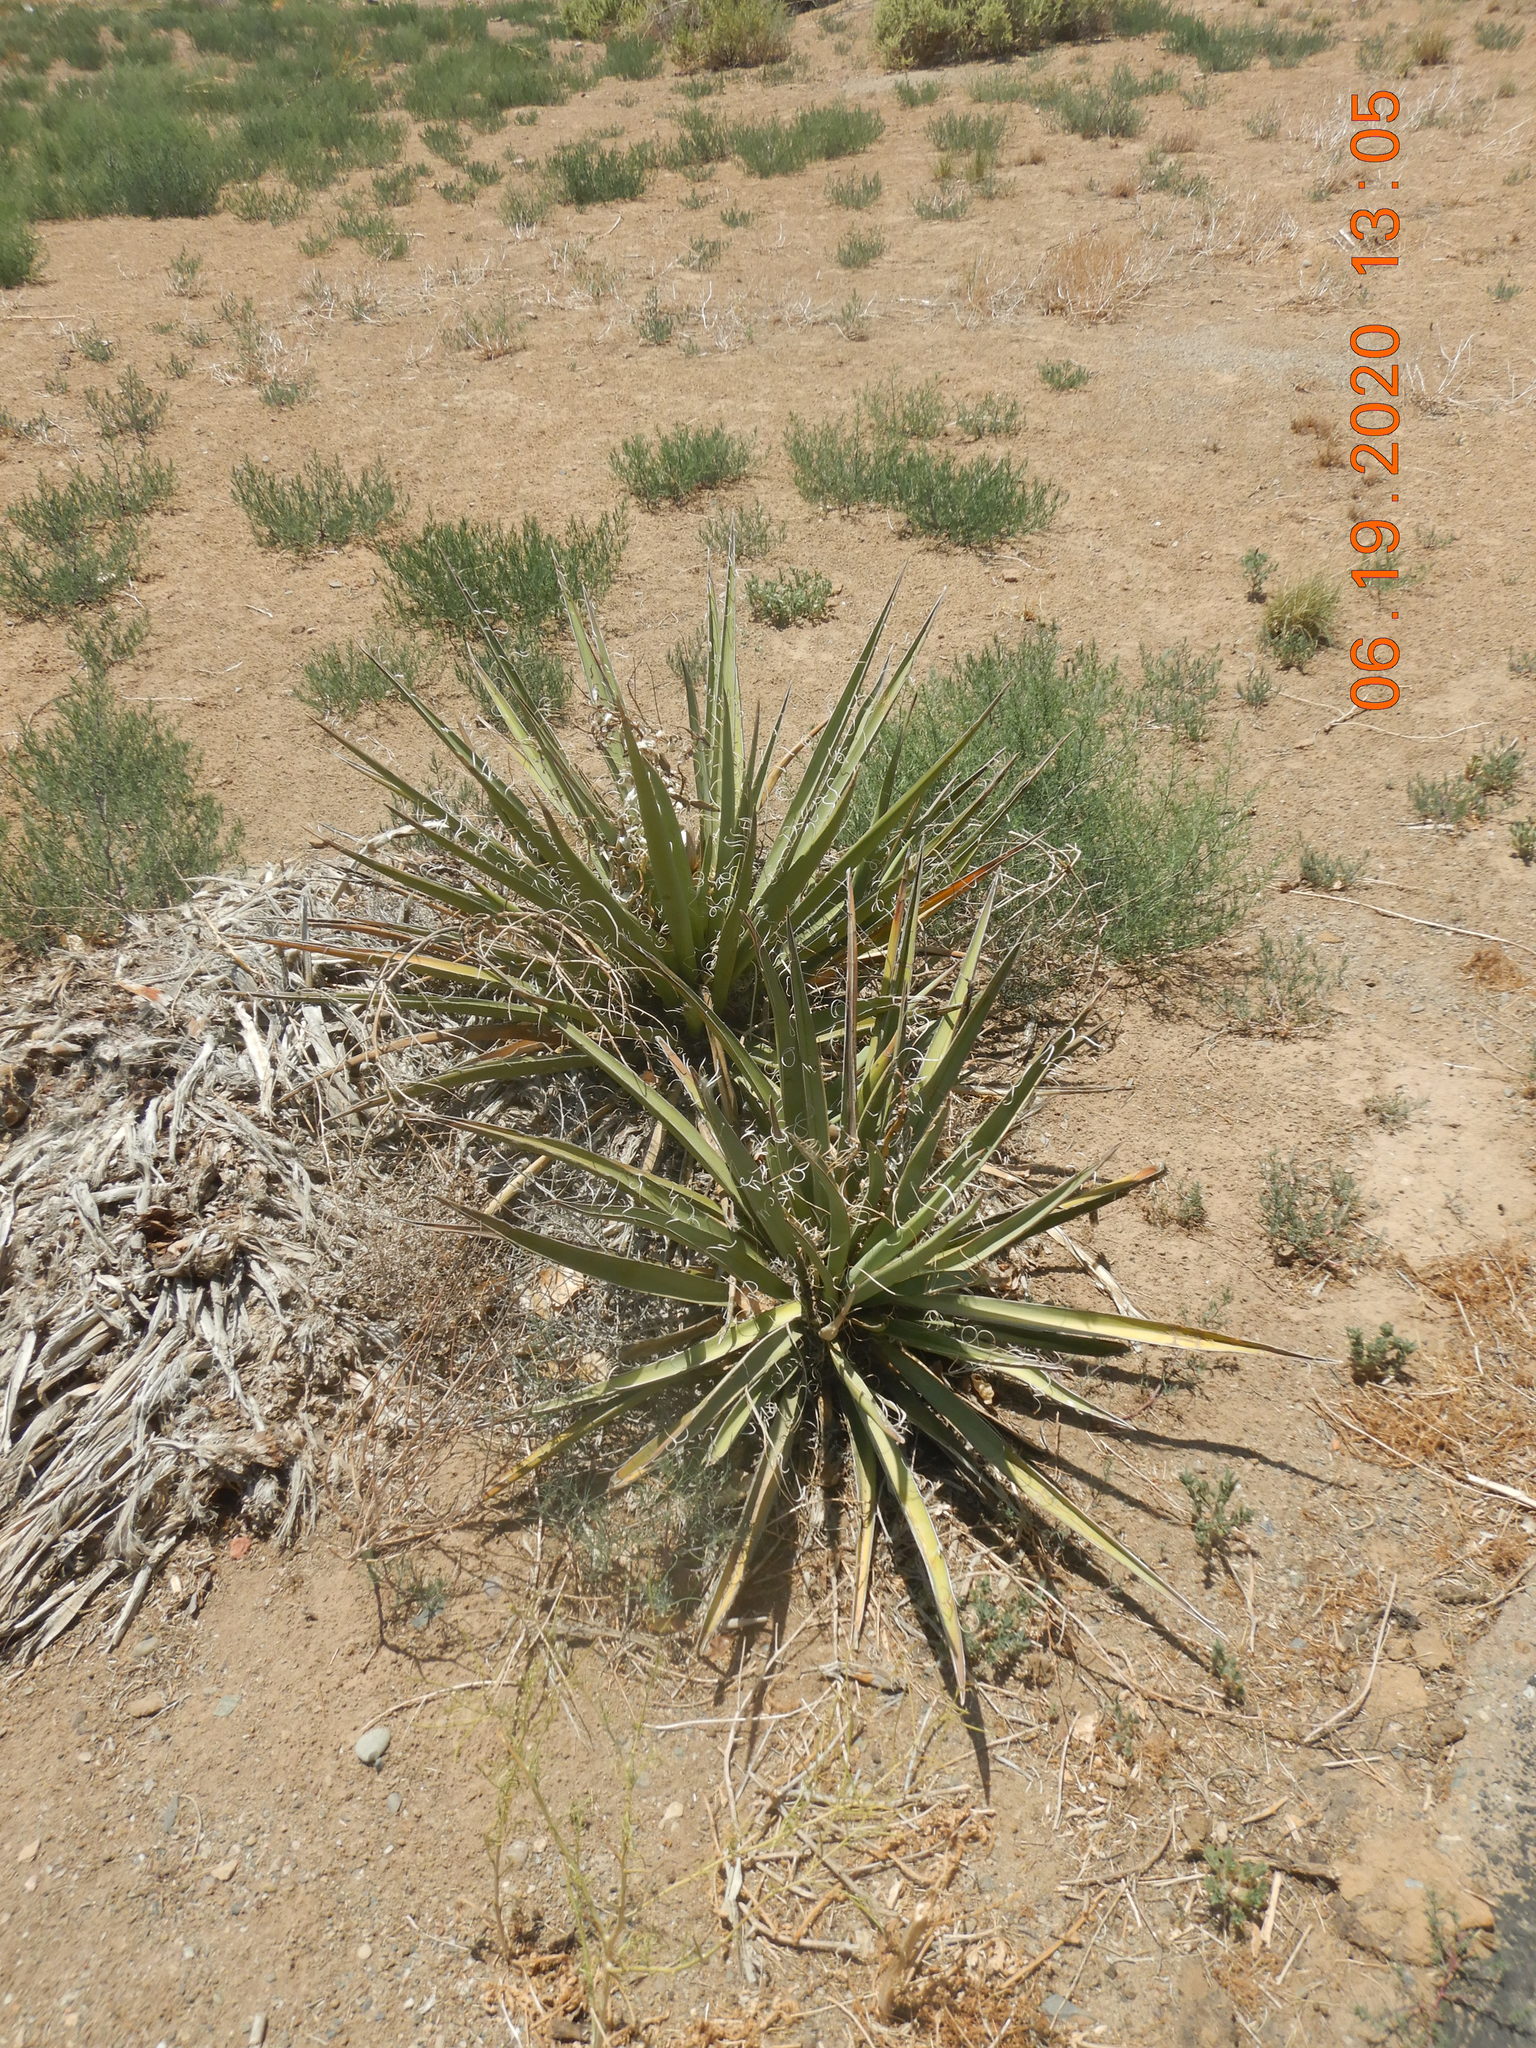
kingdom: Plantae
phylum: Tracheophyta
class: Liliopsida
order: Asparagales
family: Asparagaceae
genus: Yucca
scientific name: Yucca baccata
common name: Banana yucca
